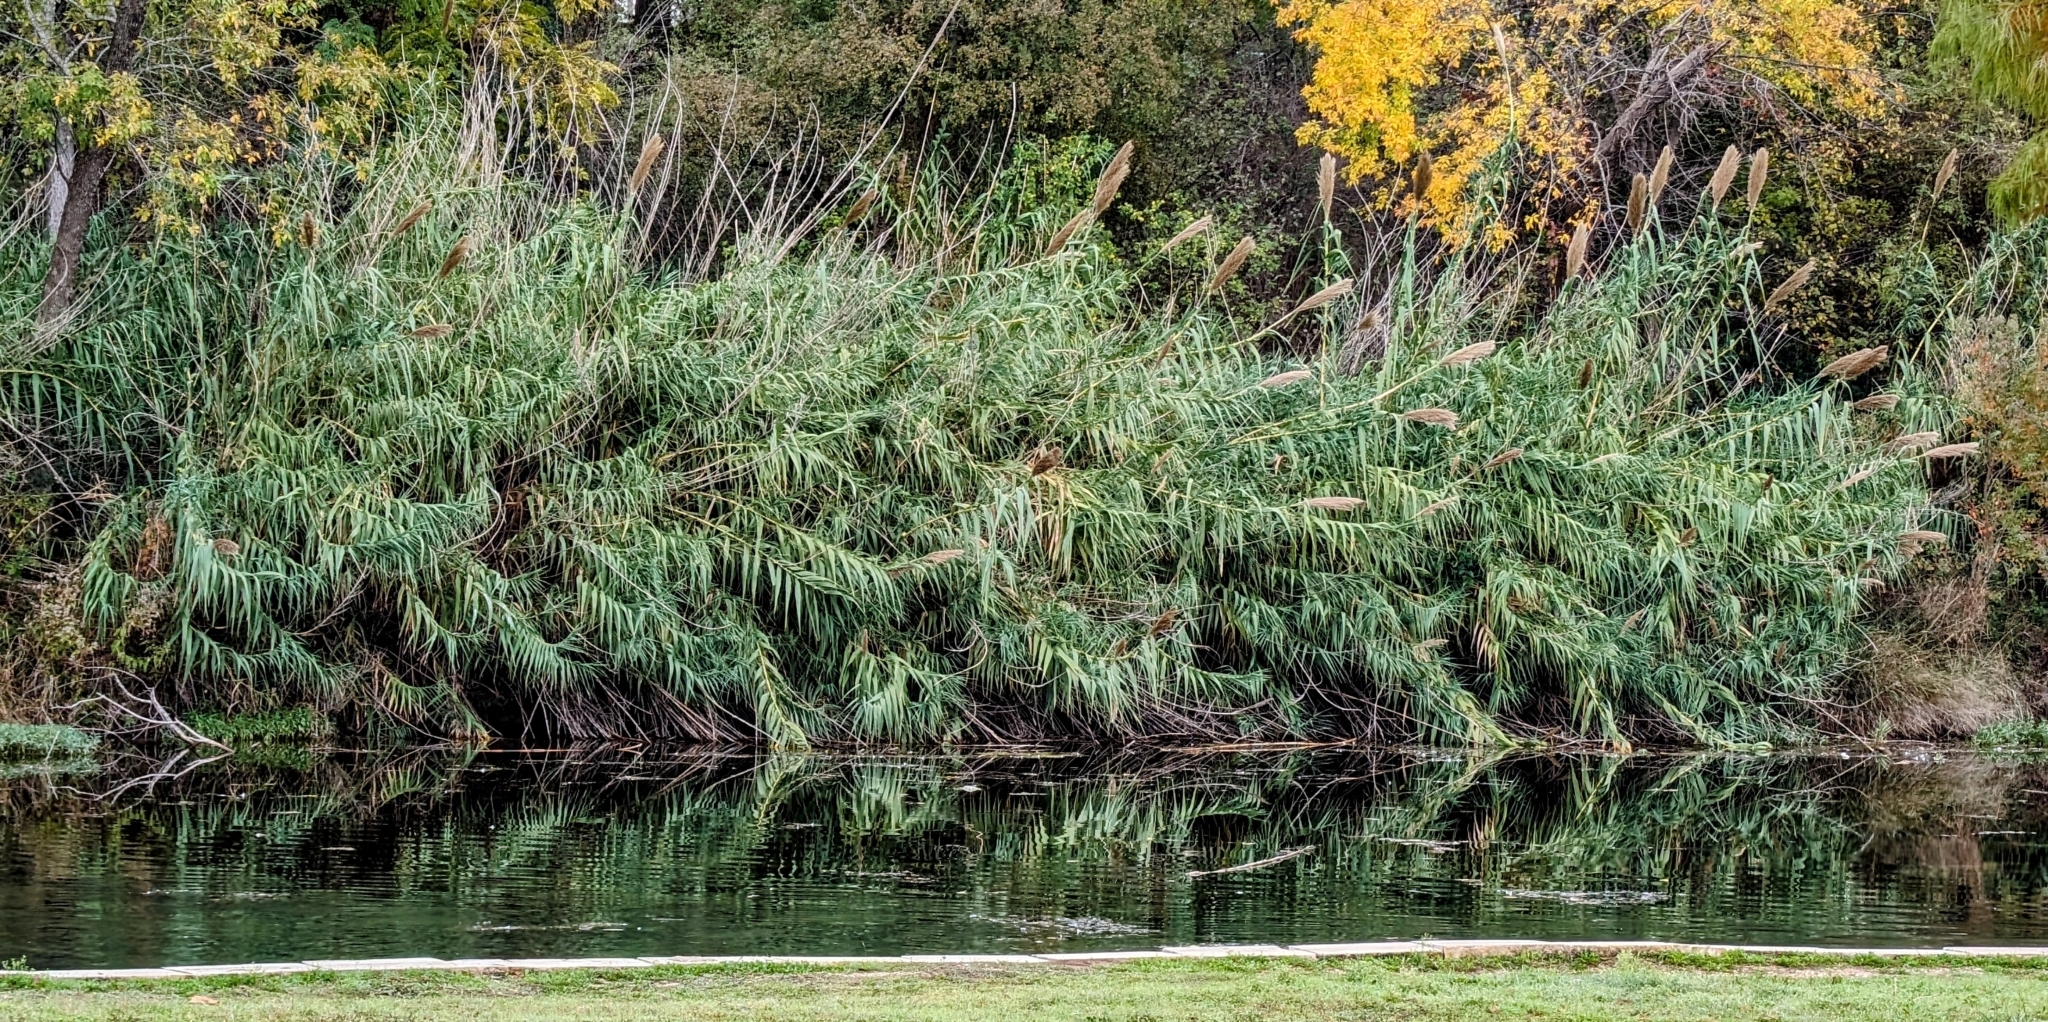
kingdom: Plantae
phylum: Tracheophyta
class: Liliopsida
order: Poales
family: Poaceae
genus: Arundo
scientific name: Arundo donax
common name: Giant reed
